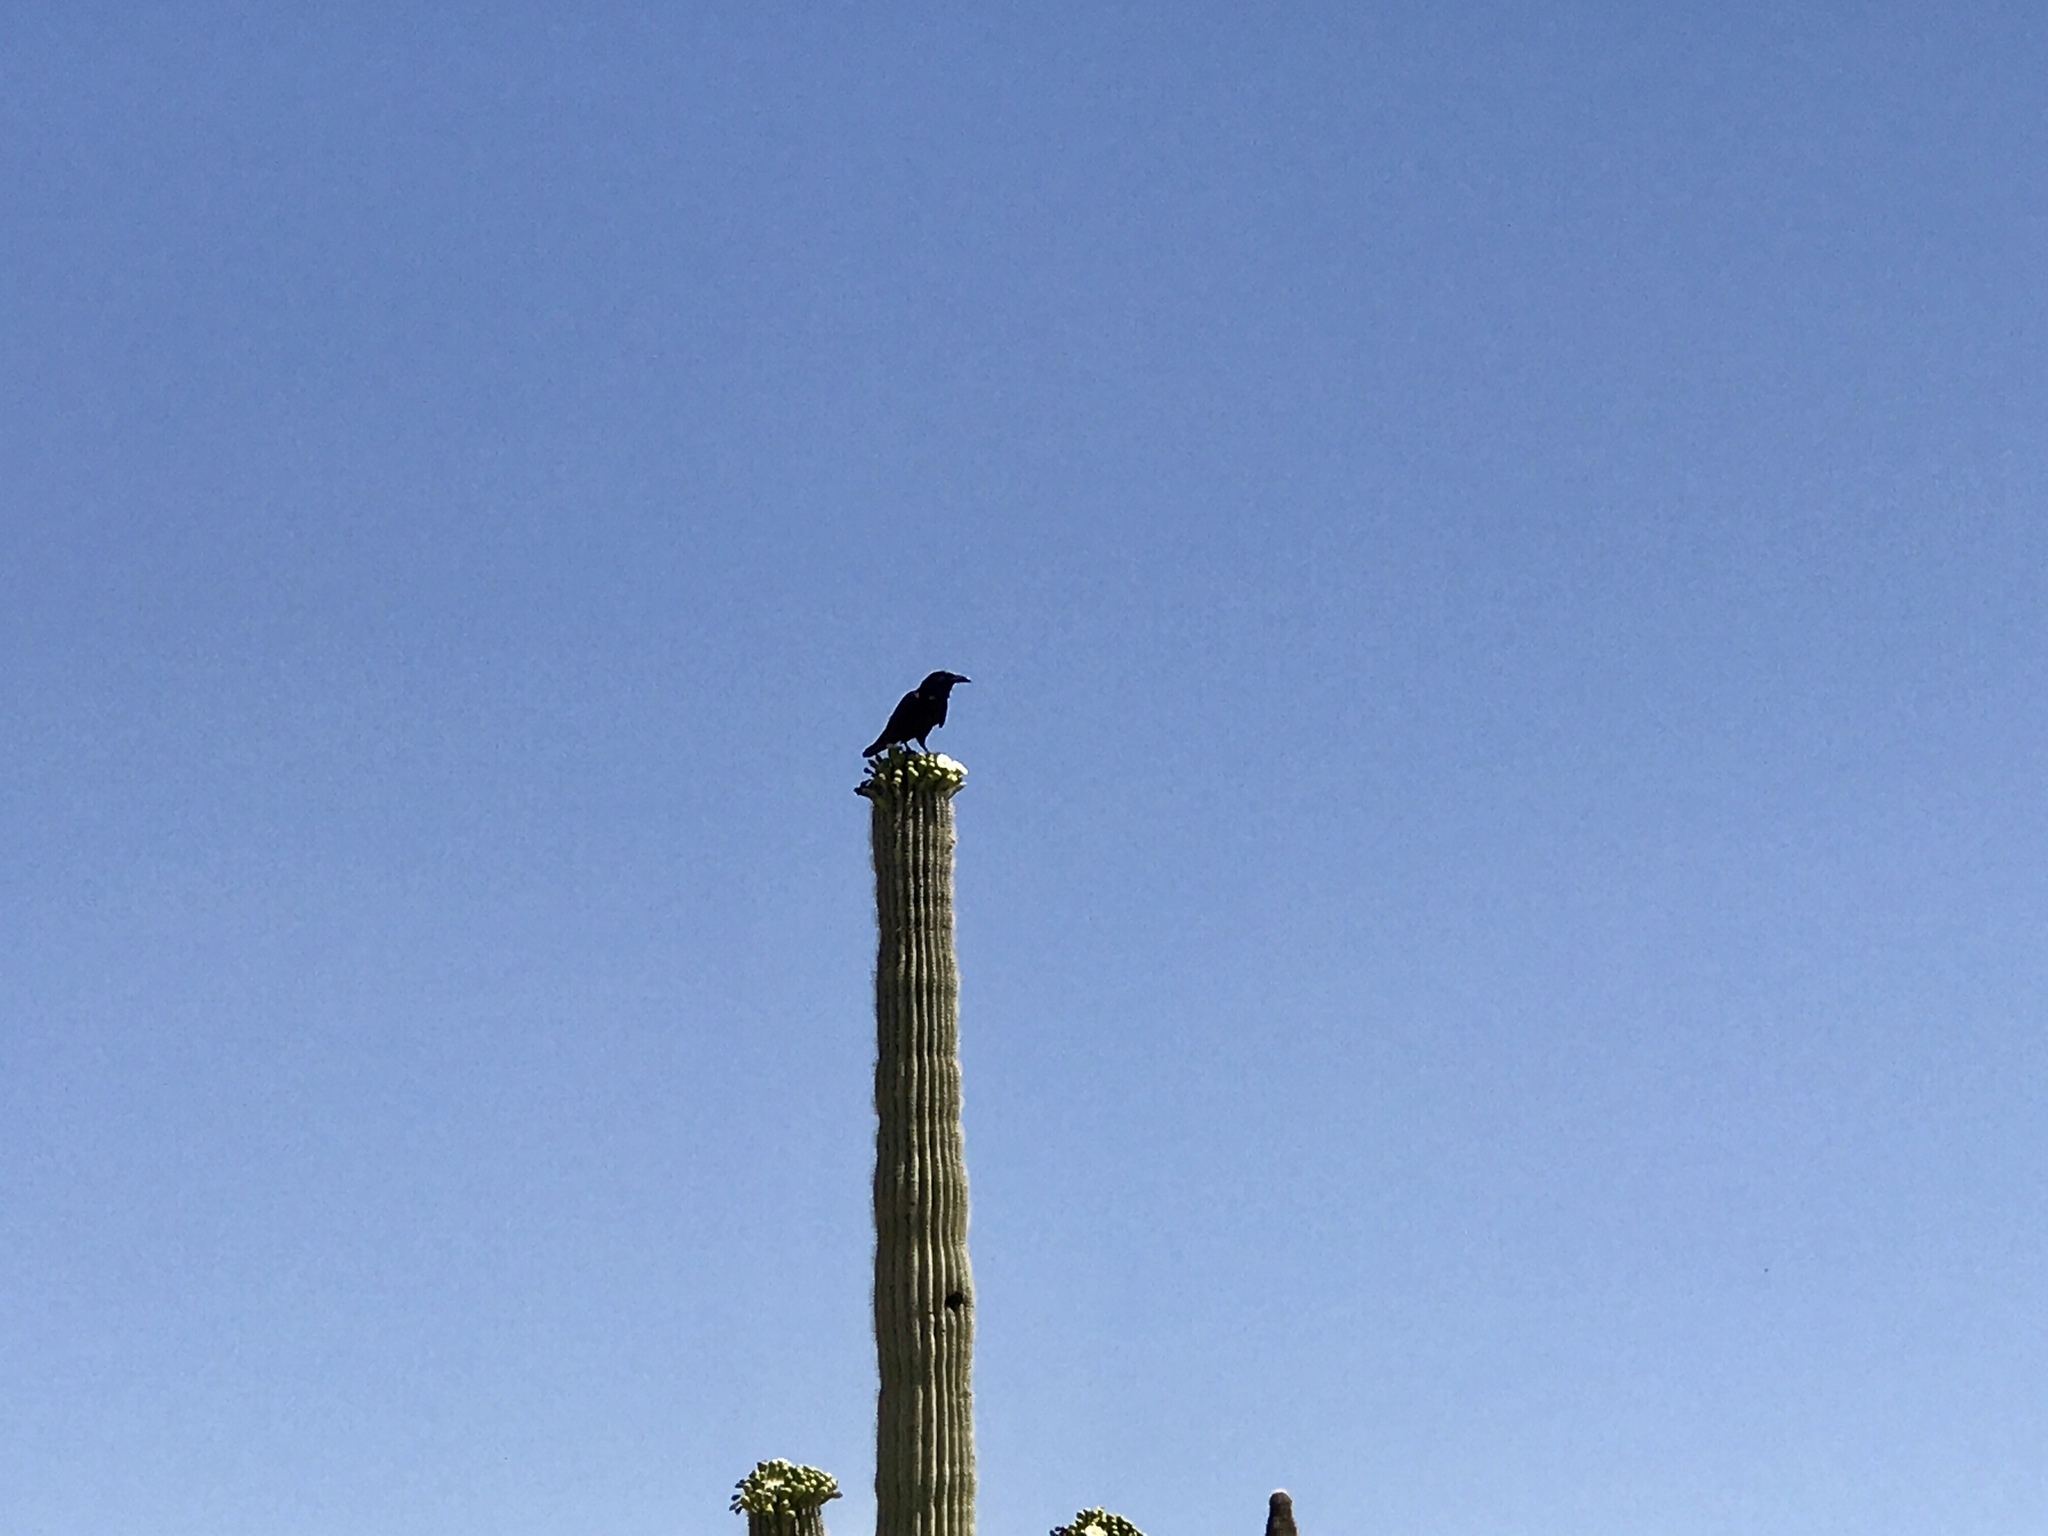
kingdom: Animalia
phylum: Chordata
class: Aves
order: Passeriformes
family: Corvidae
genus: Corvus
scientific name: Corvus corax
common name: Common raven
